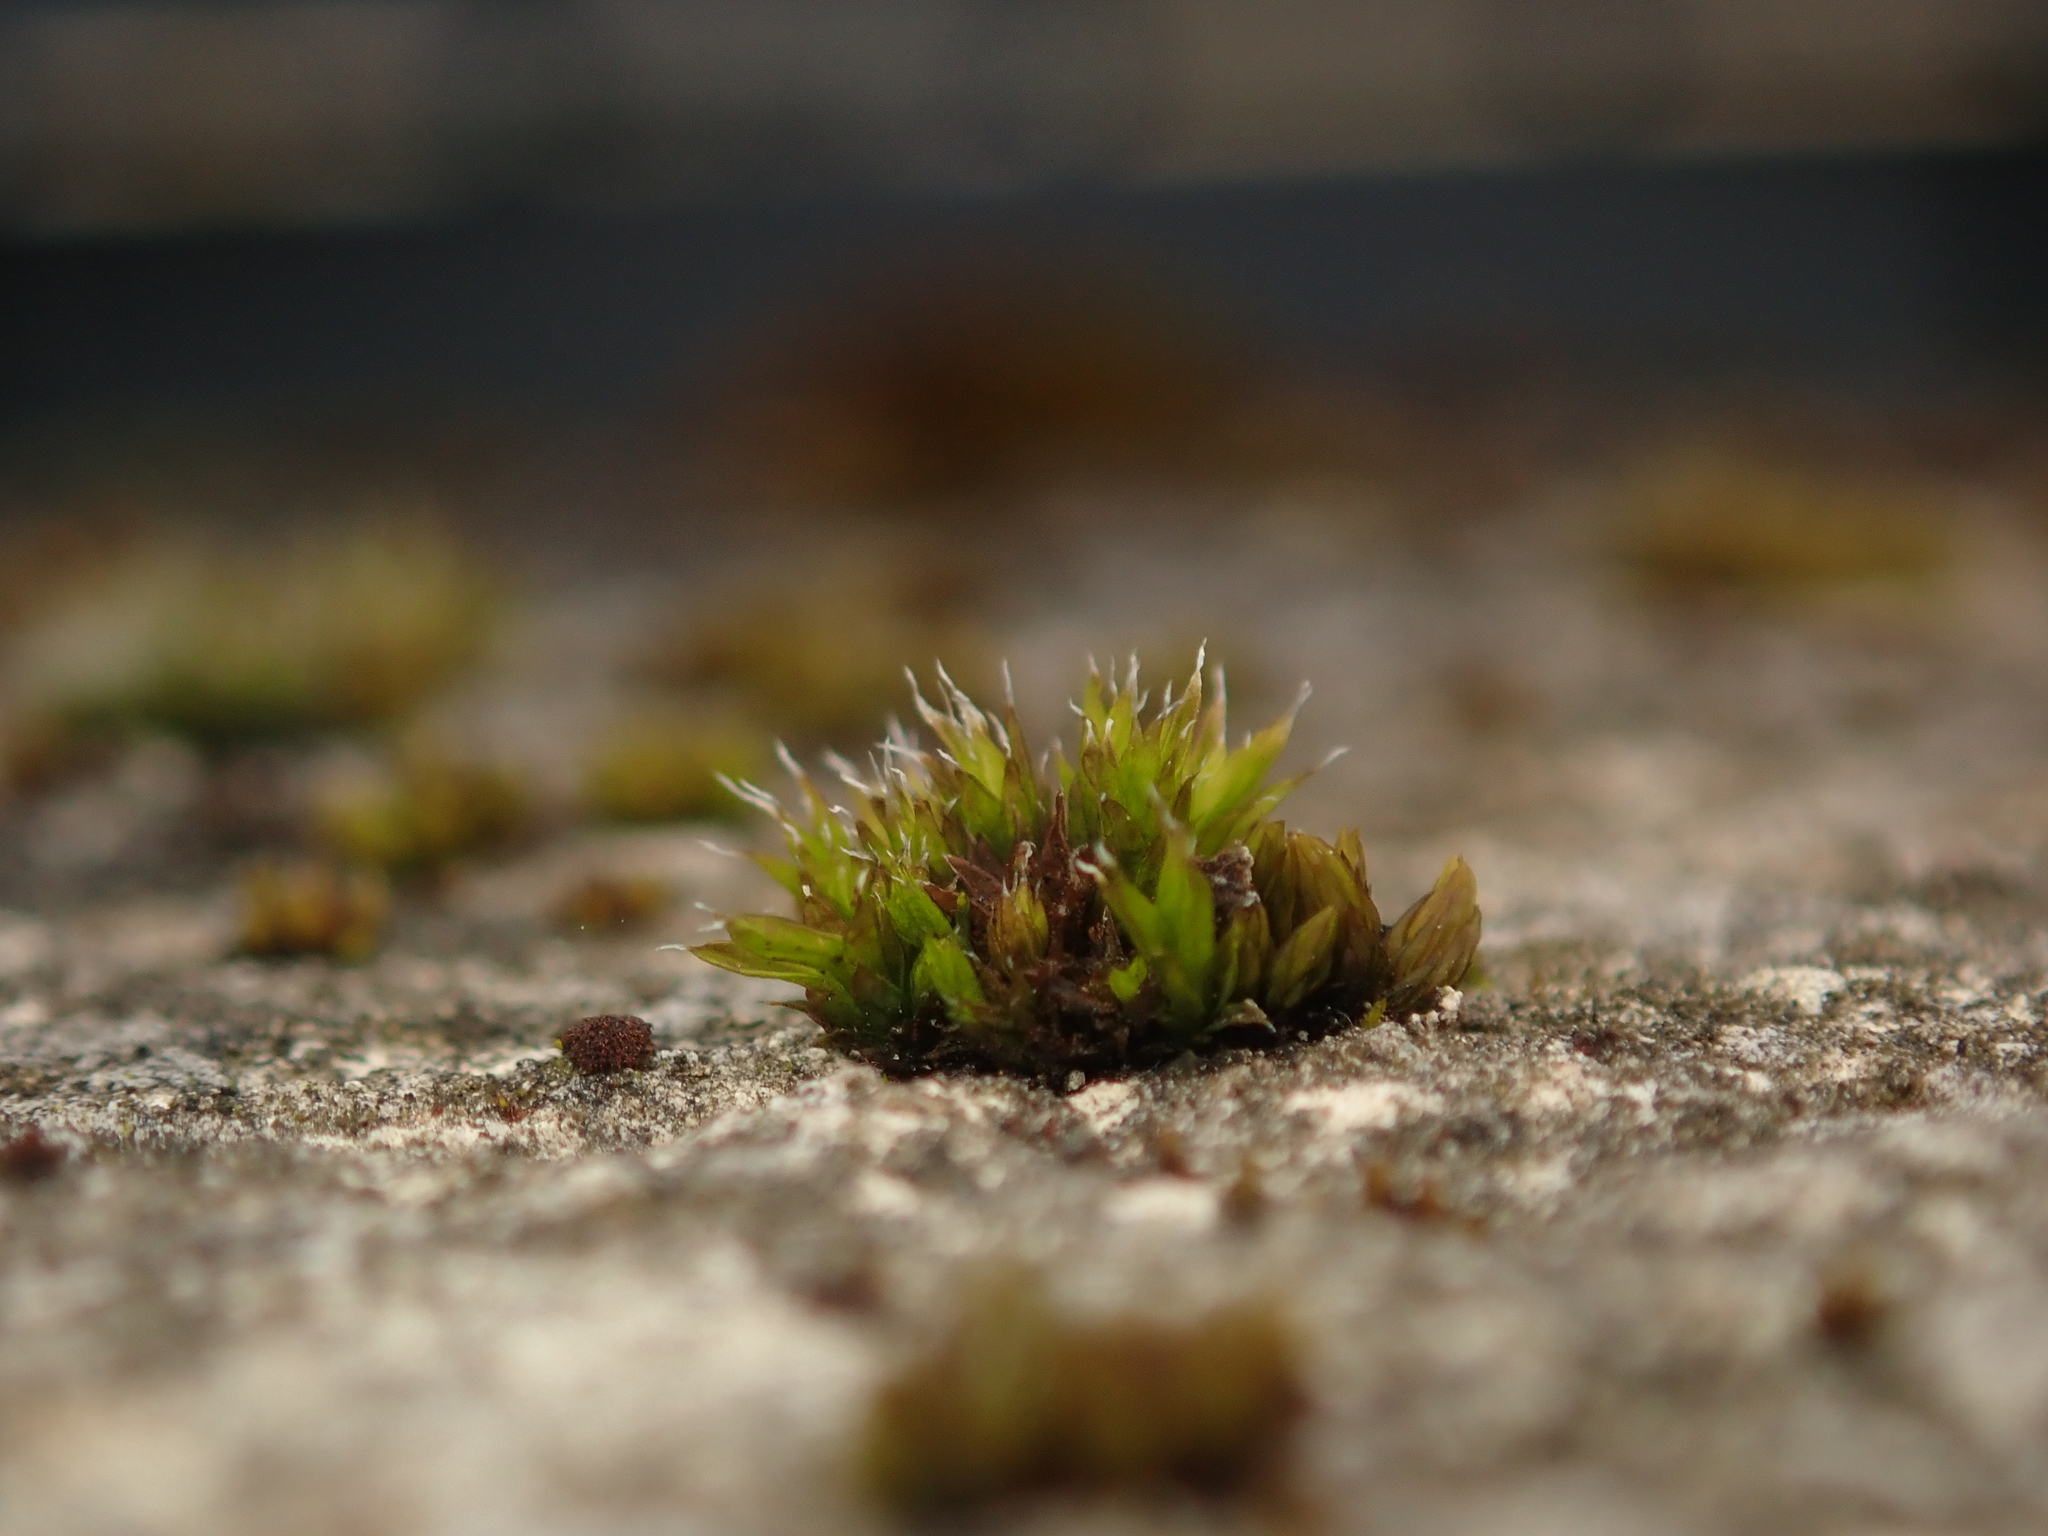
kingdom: Plantae
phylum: Bryophyta
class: Bryopsida
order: Orthotrichales
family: Orthotrichaceae
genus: Orthotrichum
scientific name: Orthotrichum diaphanum
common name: White-tipped bristle-moss
